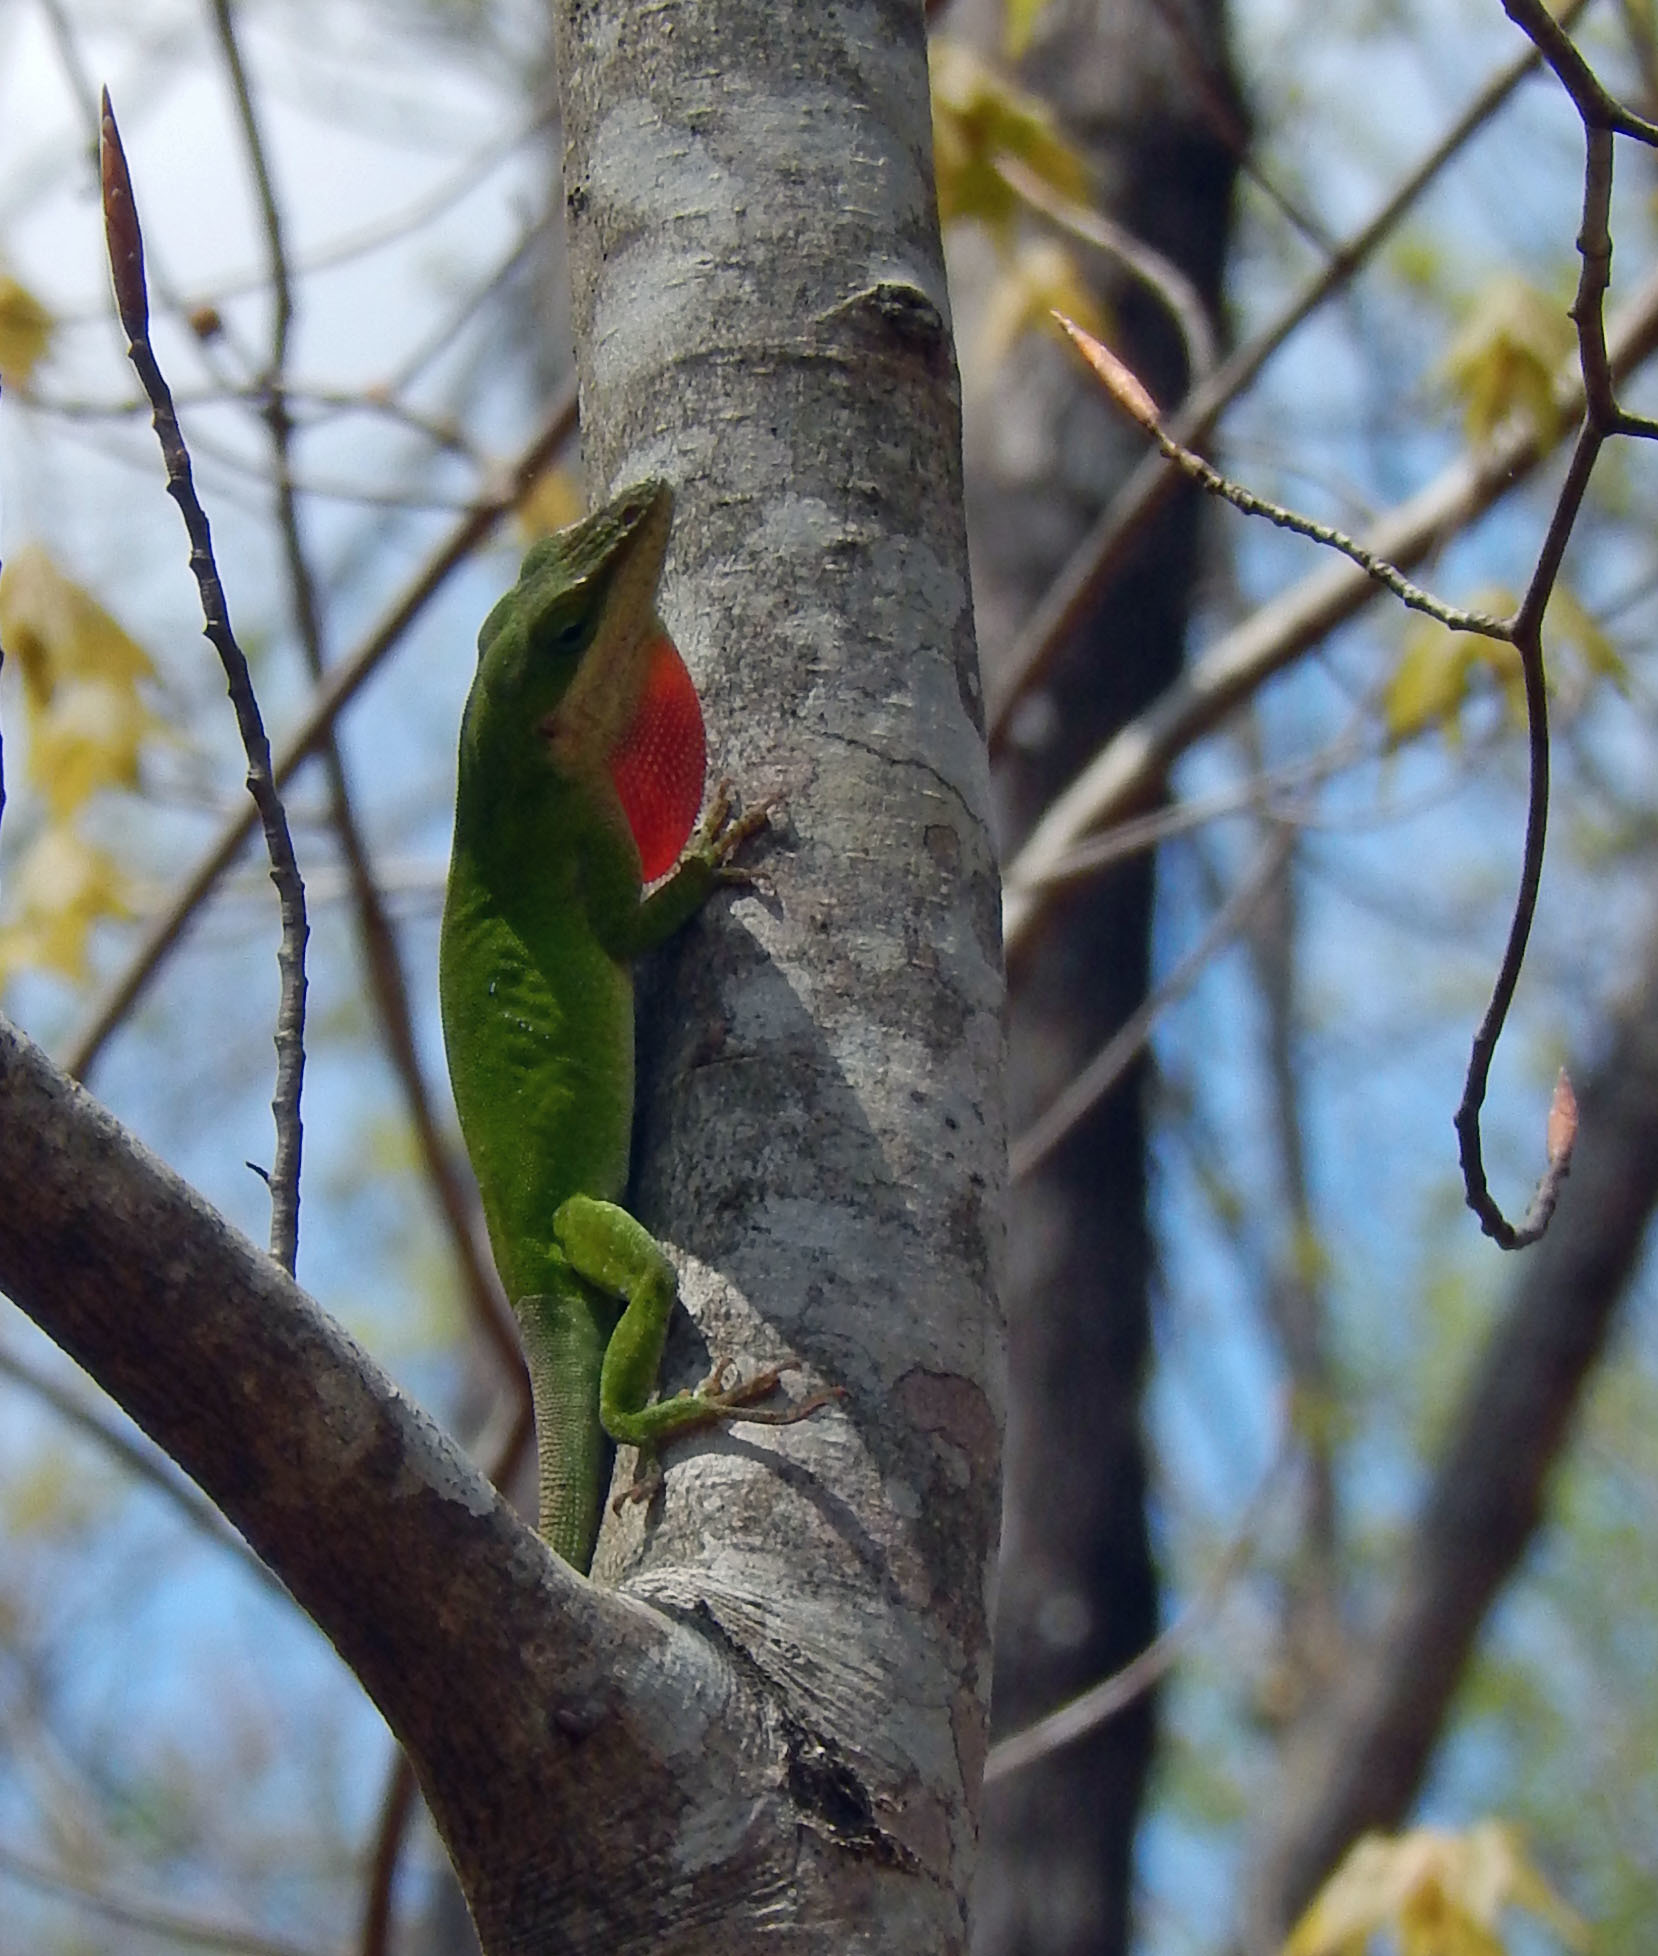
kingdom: Animalia
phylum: Chordata
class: Squamata
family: Dactyloidae
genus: Anolis
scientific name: Anolis carolinensis
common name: Green anole
